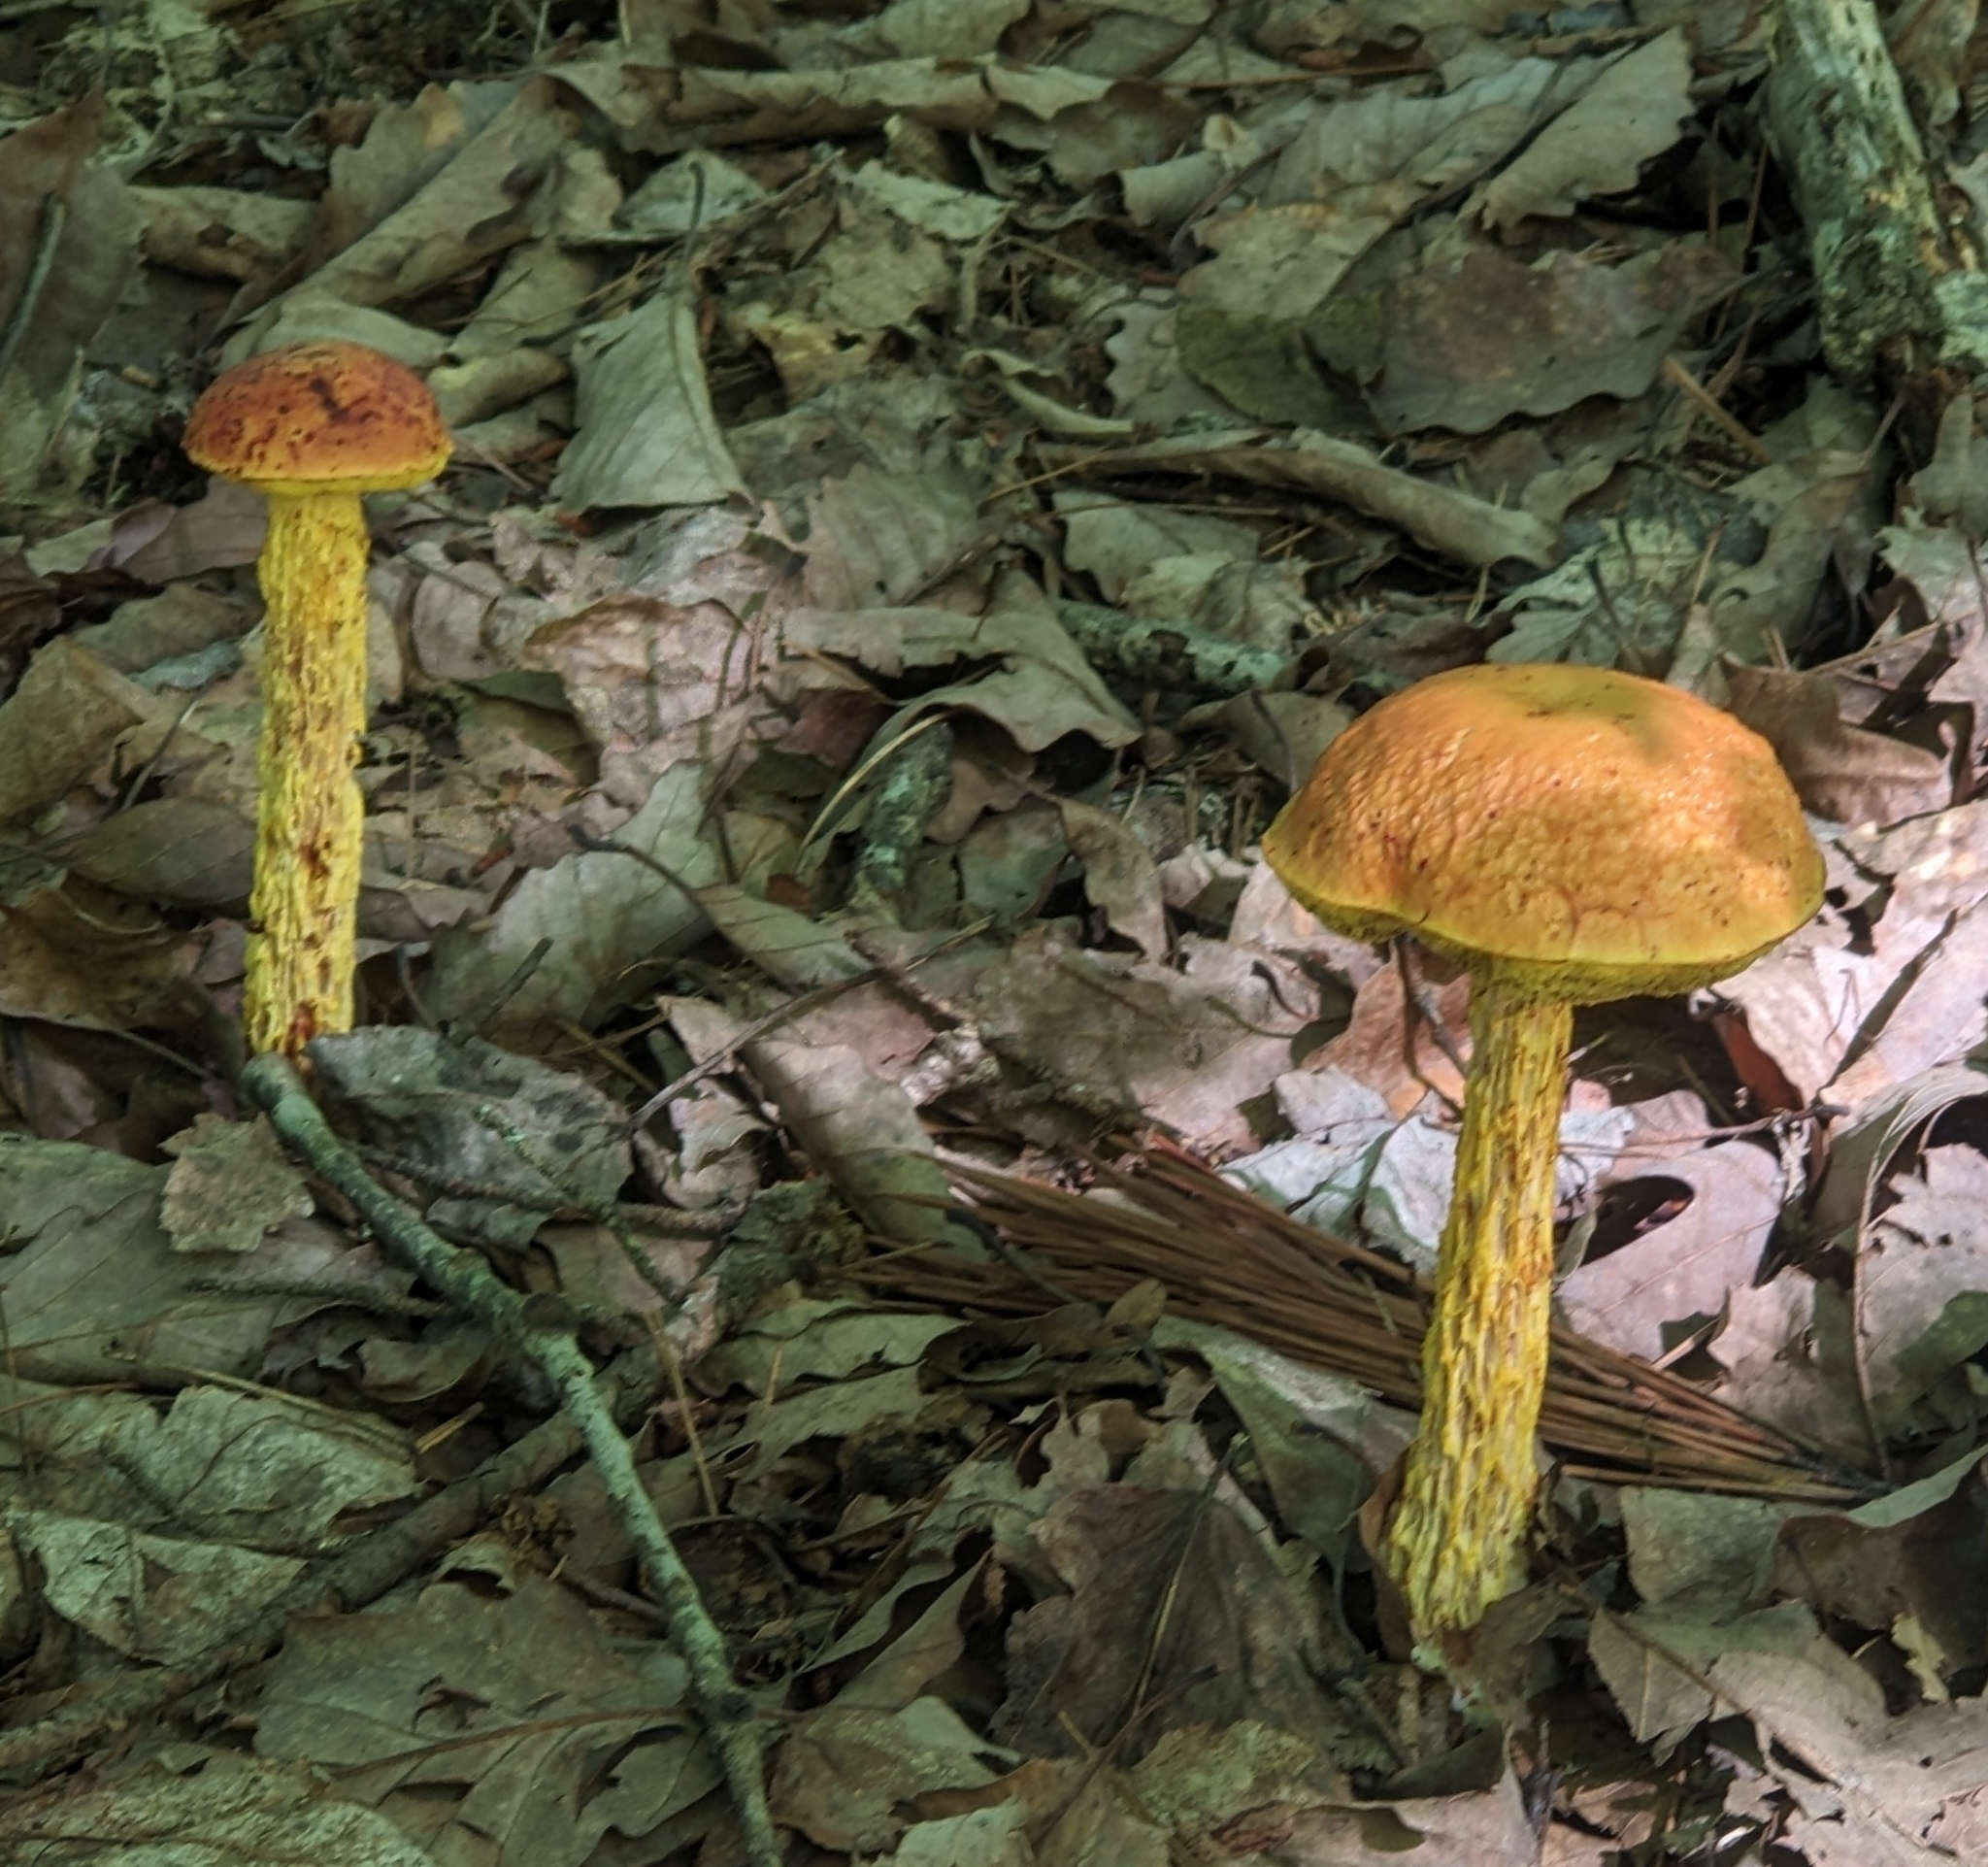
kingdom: Fungi
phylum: Basidiomycota
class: Agaricomycetes
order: Boletales
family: Boletaceae
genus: Aureoboletus
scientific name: Aureoboletus betula
